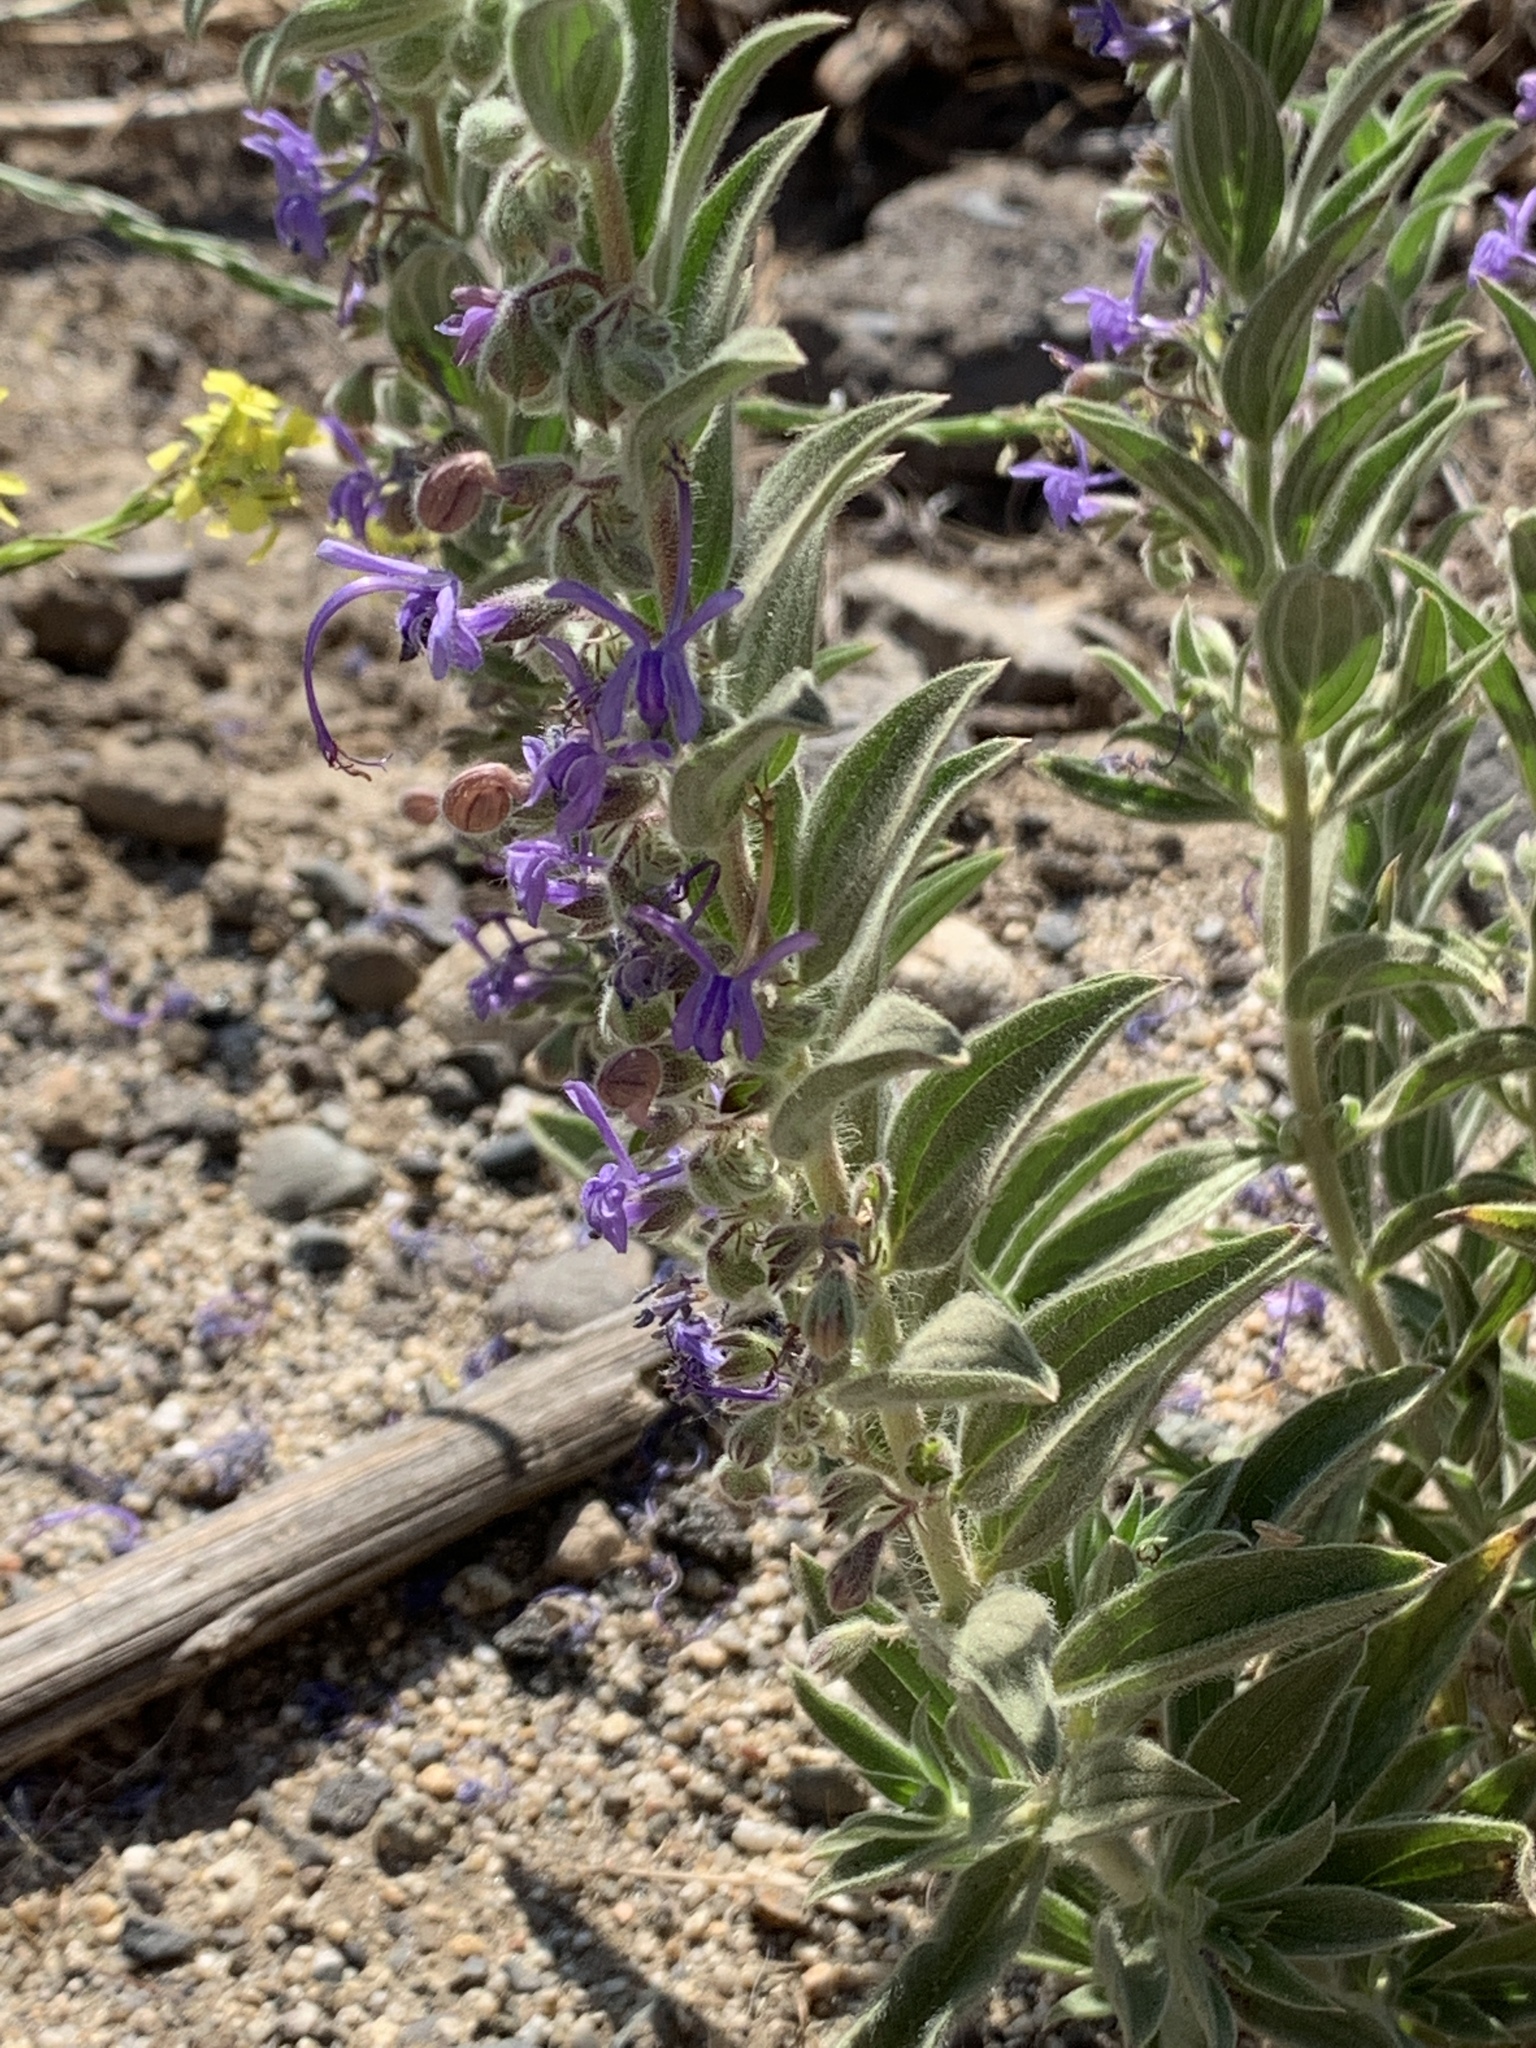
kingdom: Plantae
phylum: Tracheophyta
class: Magnoliopsida
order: Lamiales
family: Lamiaceae
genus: Trichostema
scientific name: Trichostema lanceolatum
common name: Vinegar-weed
